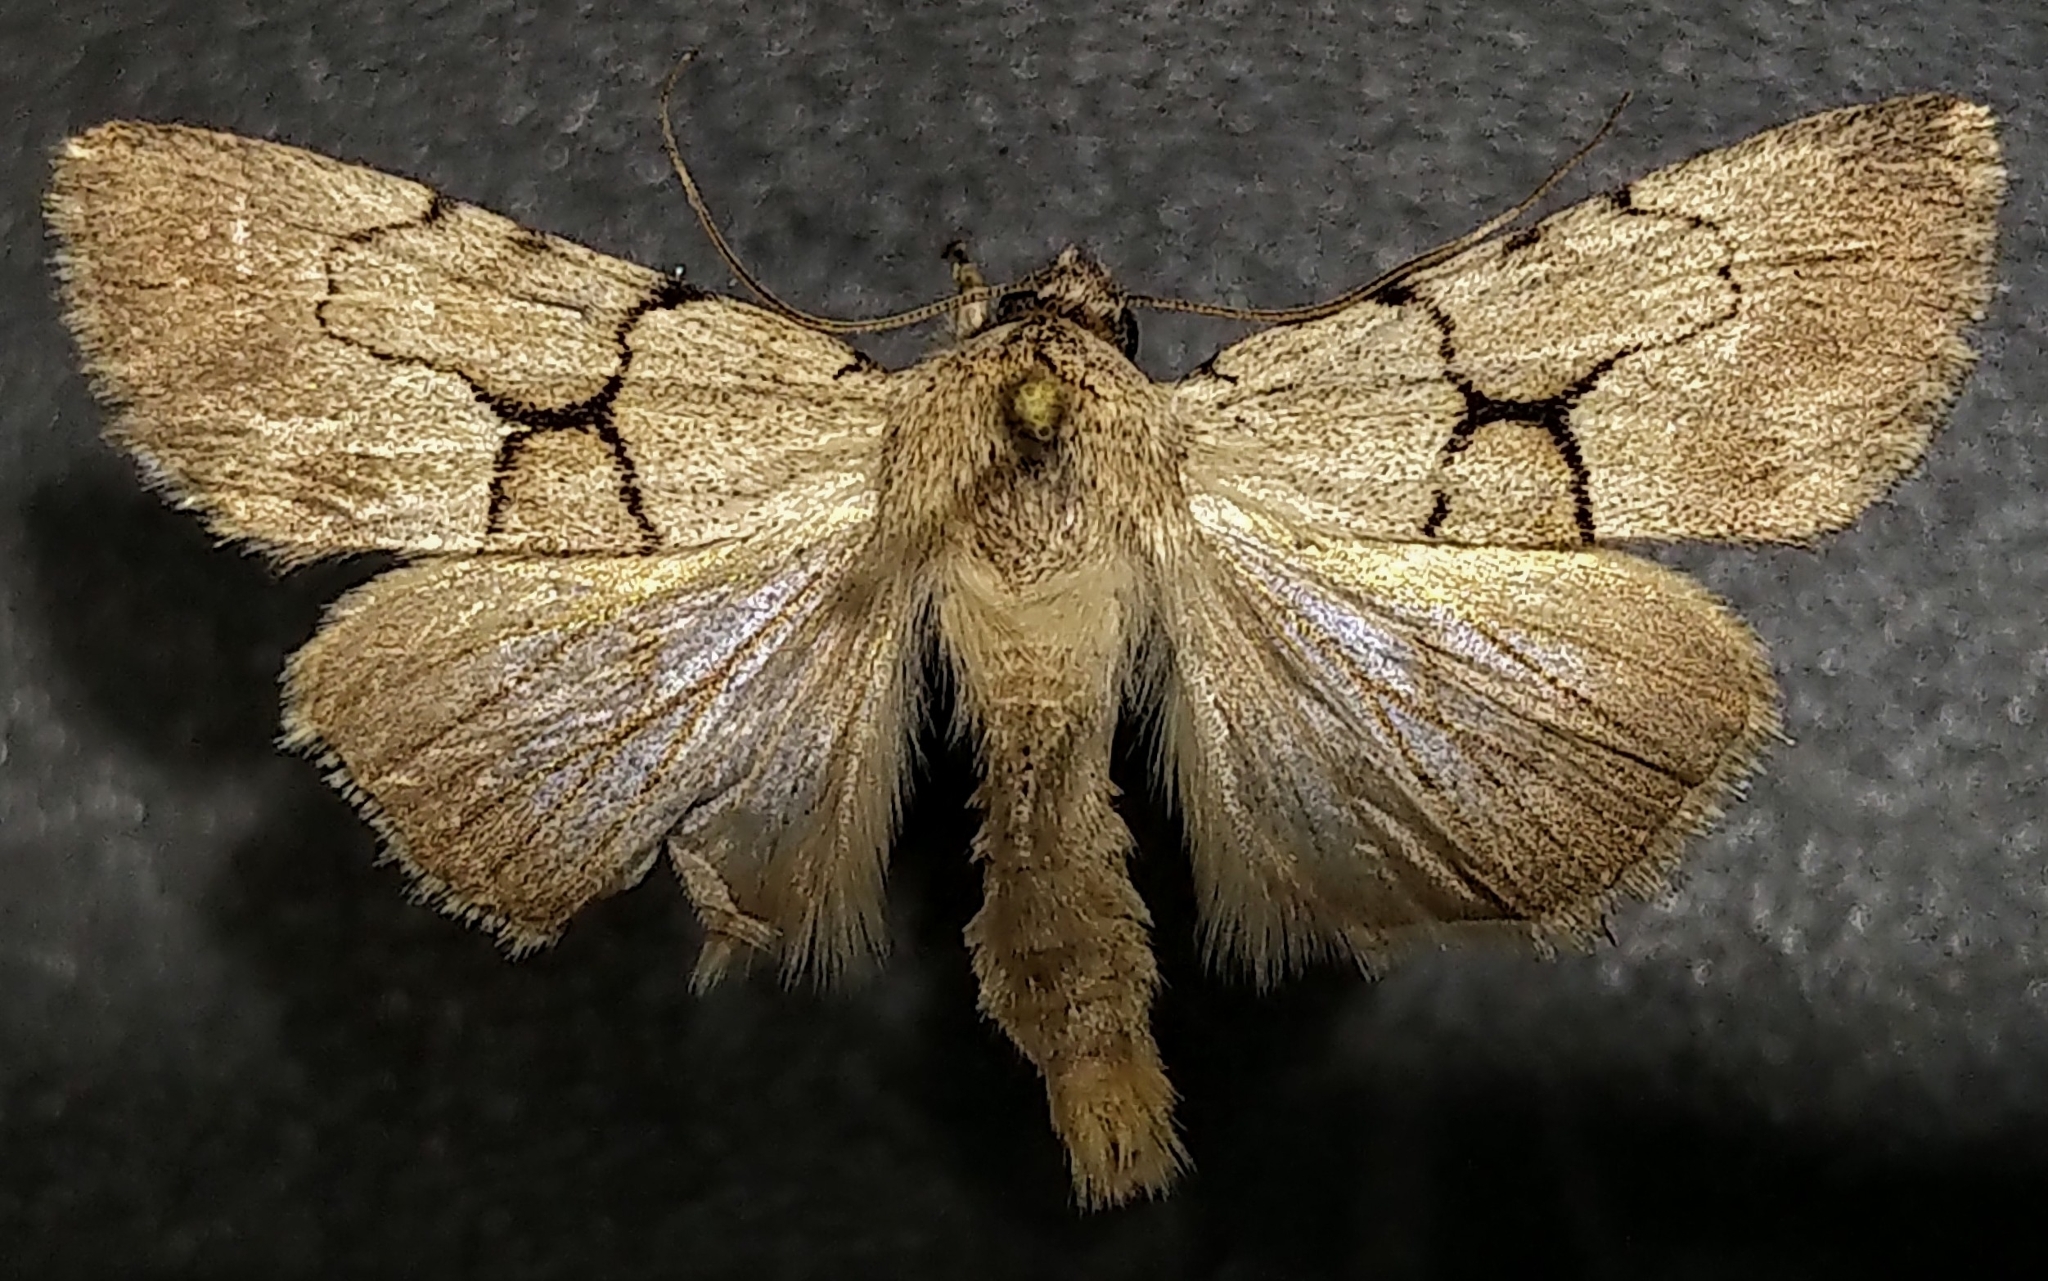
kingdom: Animalia
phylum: Arthropoda
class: Insecta
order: Lepidoptera
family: Noctuidae
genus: Sympistis
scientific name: Sympistis pallidior
